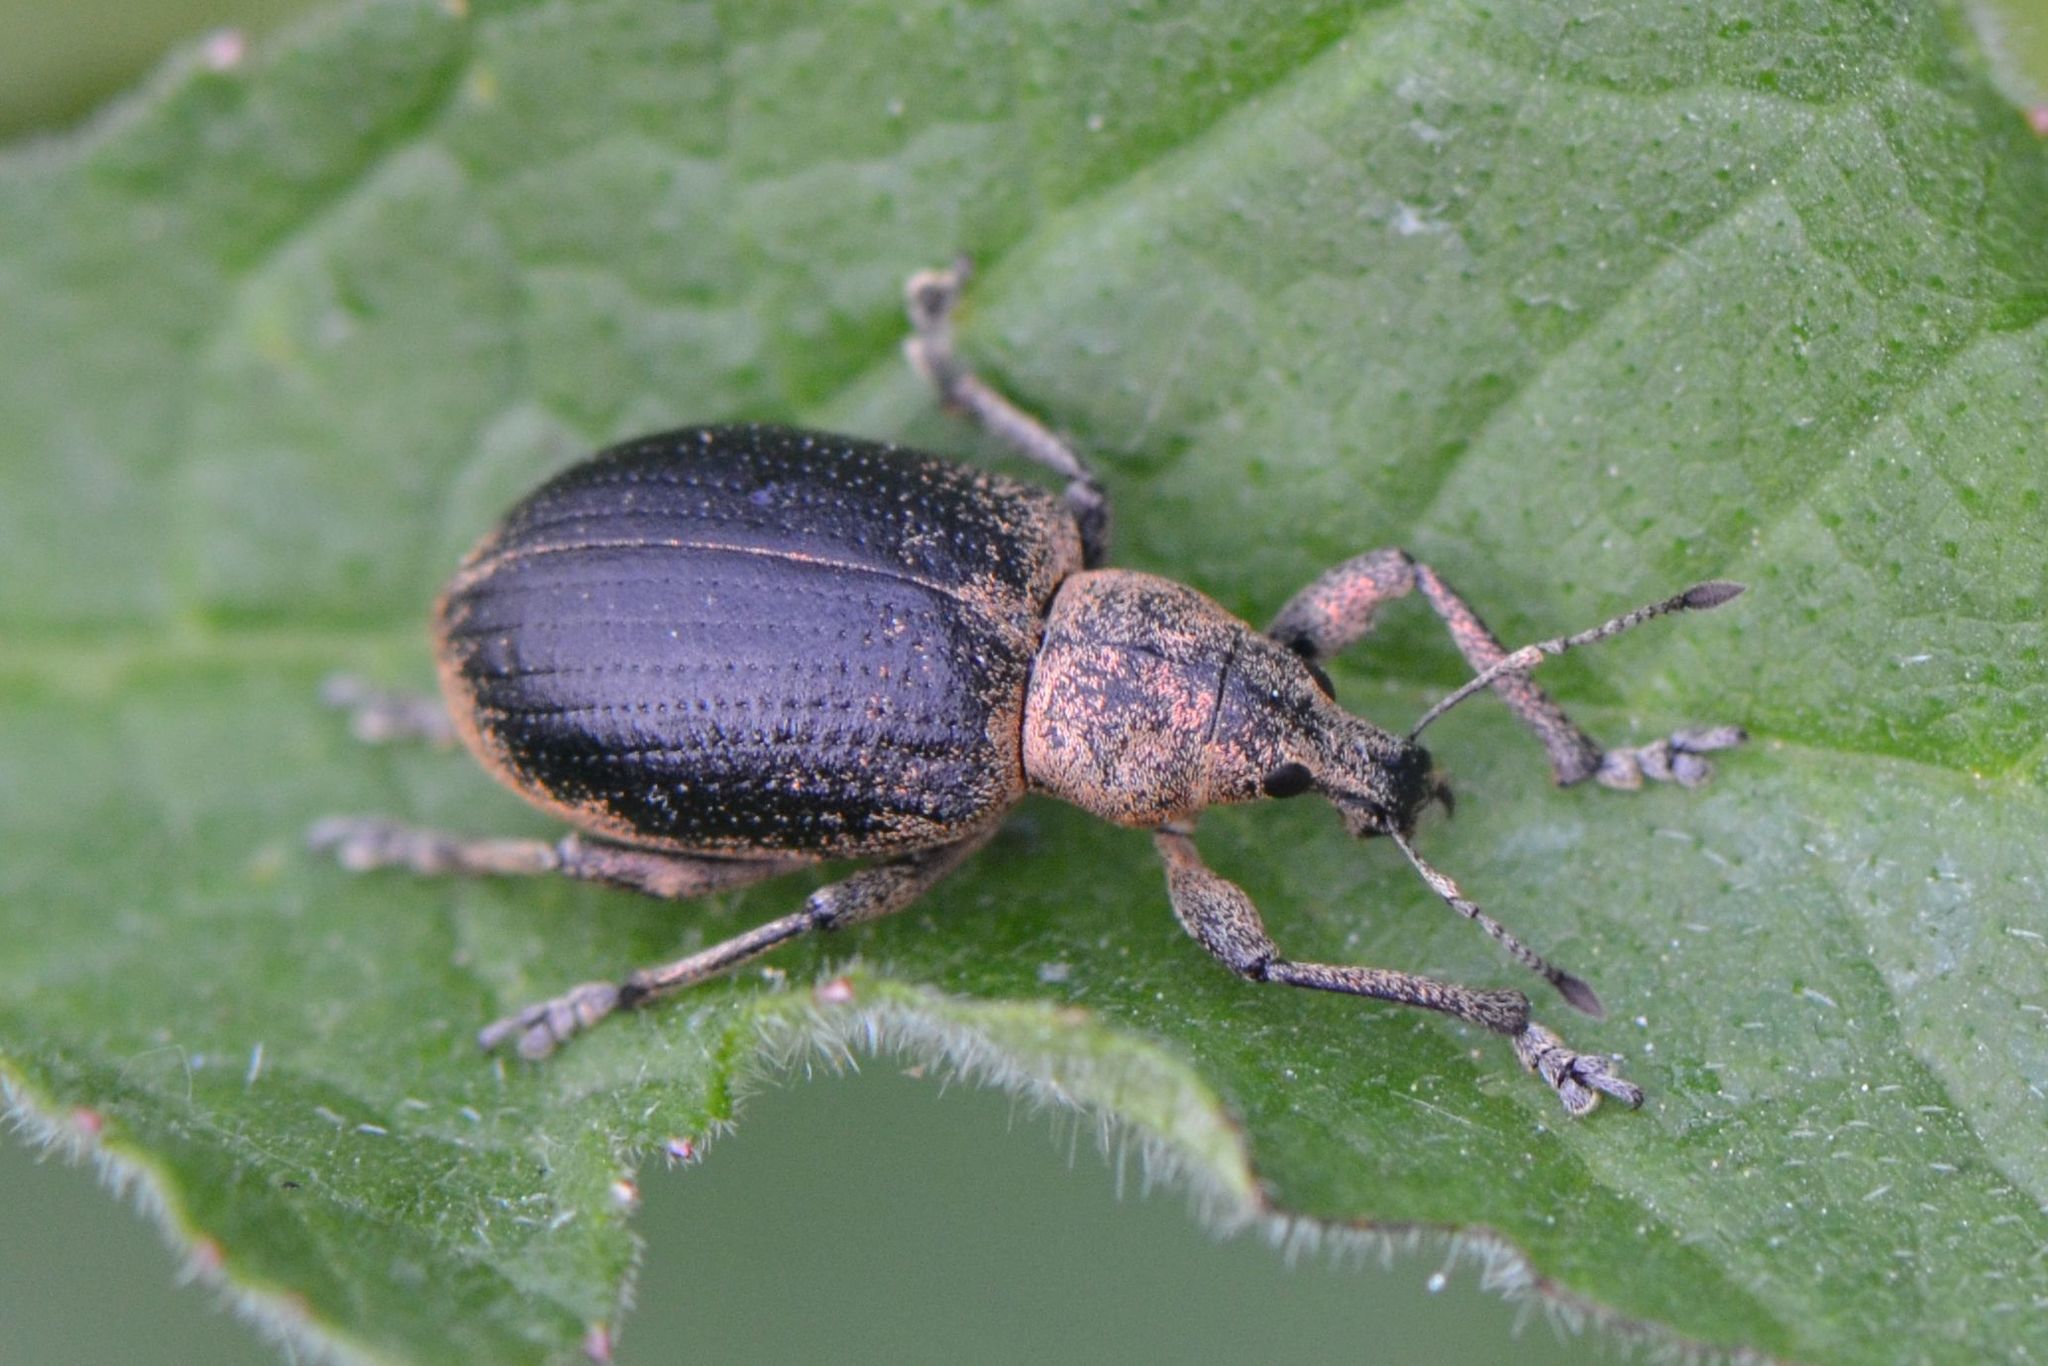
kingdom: Animalia
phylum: Arthropoda
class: Insecta
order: Coleoptera
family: Curculionidae
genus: Liophloeus
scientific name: Liophloeus tessulatus
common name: Weevil
